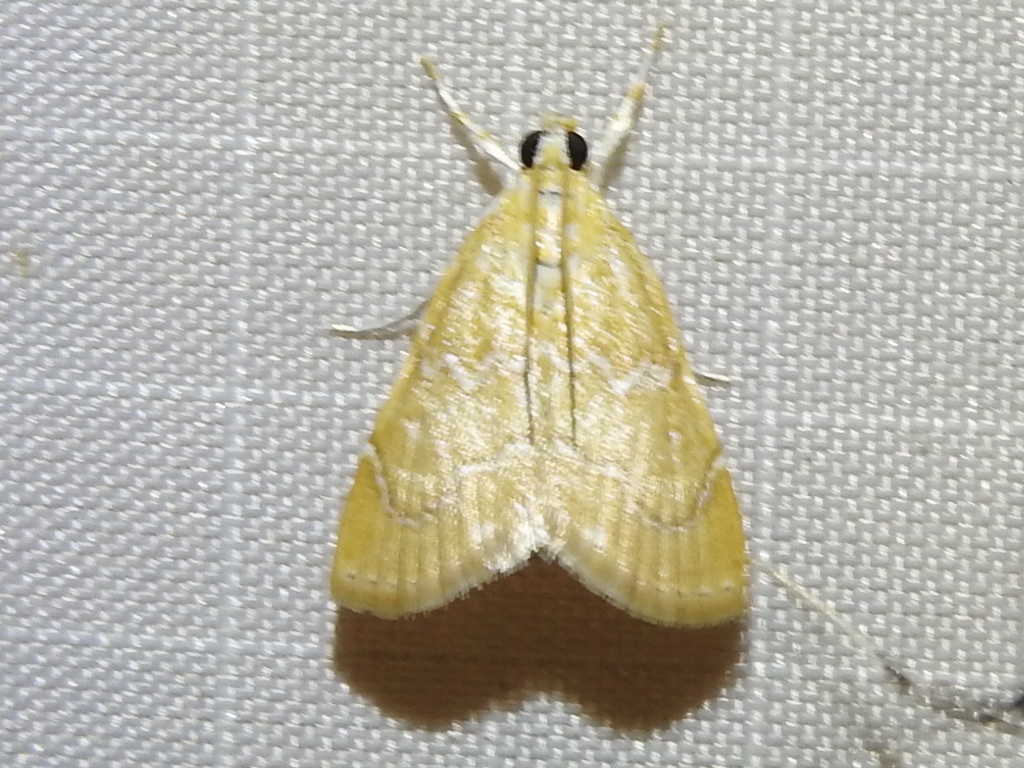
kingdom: Animalia
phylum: Arthropoda
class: Insecta
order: Lepidoptera
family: Crambidae
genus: Glaphyria
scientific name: Glaphyria sesquistrialis
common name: White-roped glaphyria
